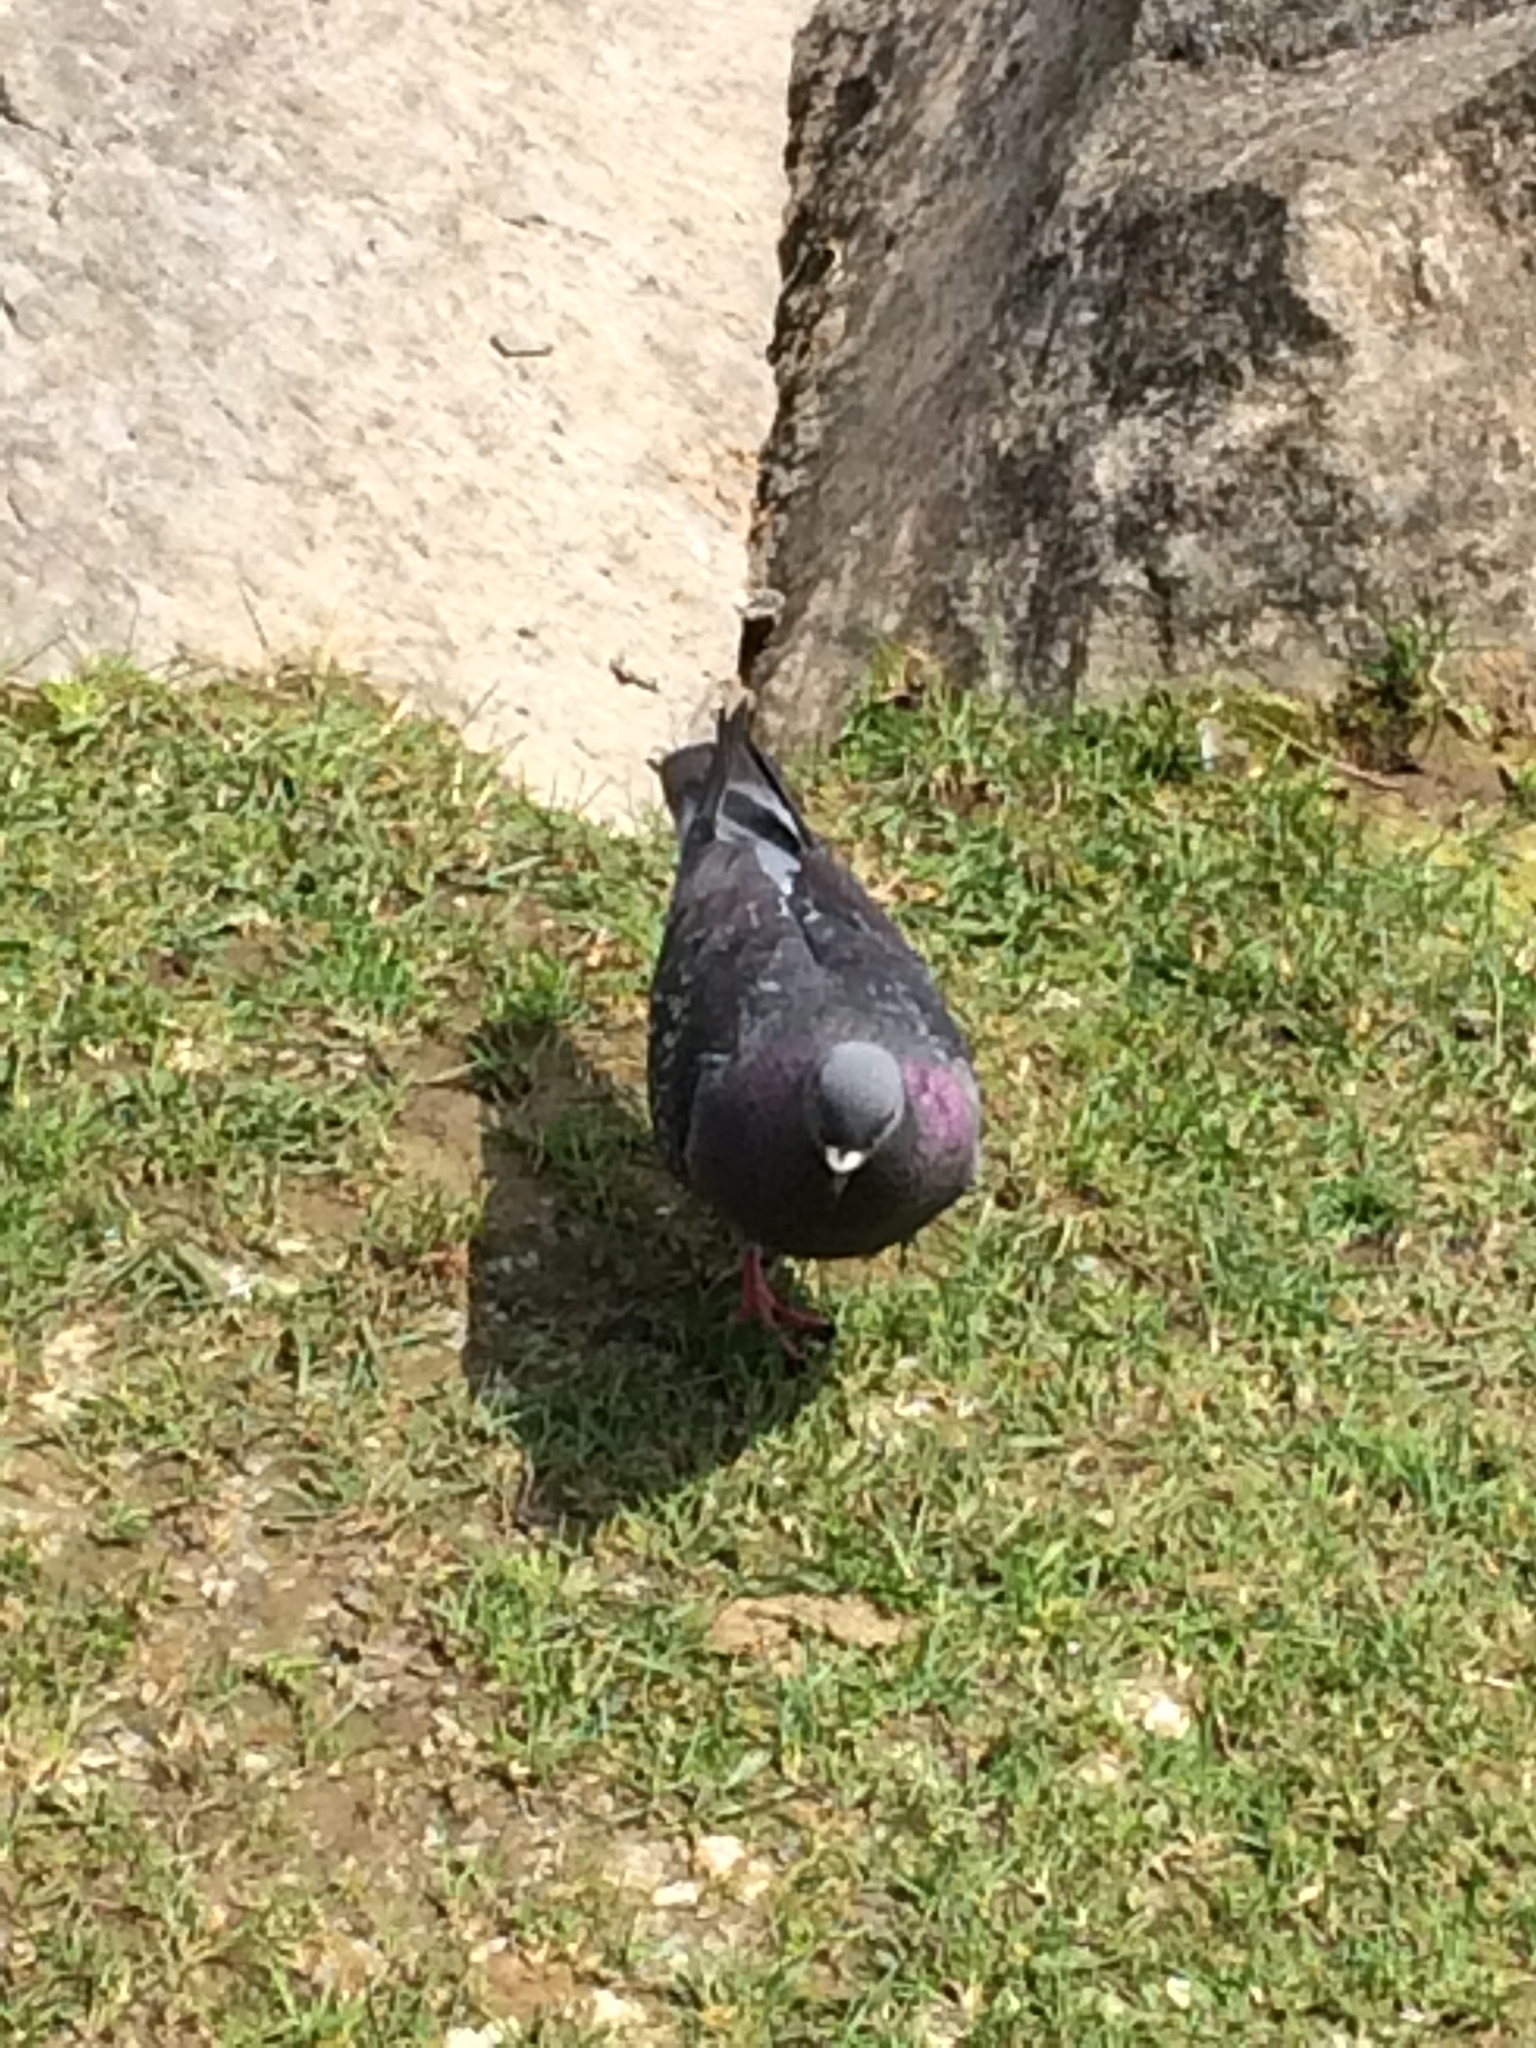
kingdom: Animalia
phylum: Chordata
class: Aves
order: Columbiformes
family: Columbidae
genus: Columba
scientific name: Columba livia
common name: Rock pigeon
